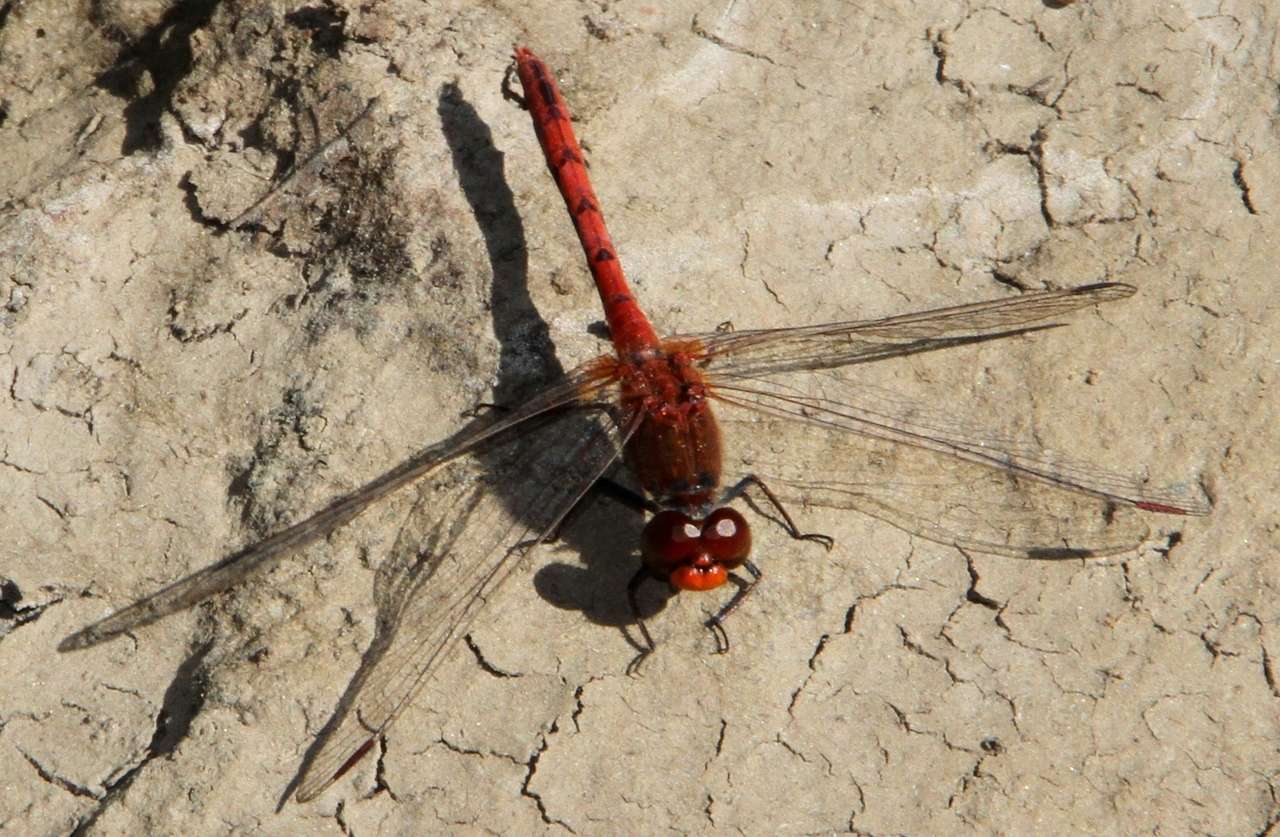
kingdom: Animalia
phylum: Arthropoda
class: Insecta
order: Odonata
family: Libellulidae
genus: Diplacodes
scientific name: Diplacodes bipunctata
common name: Red percher dragonfly
